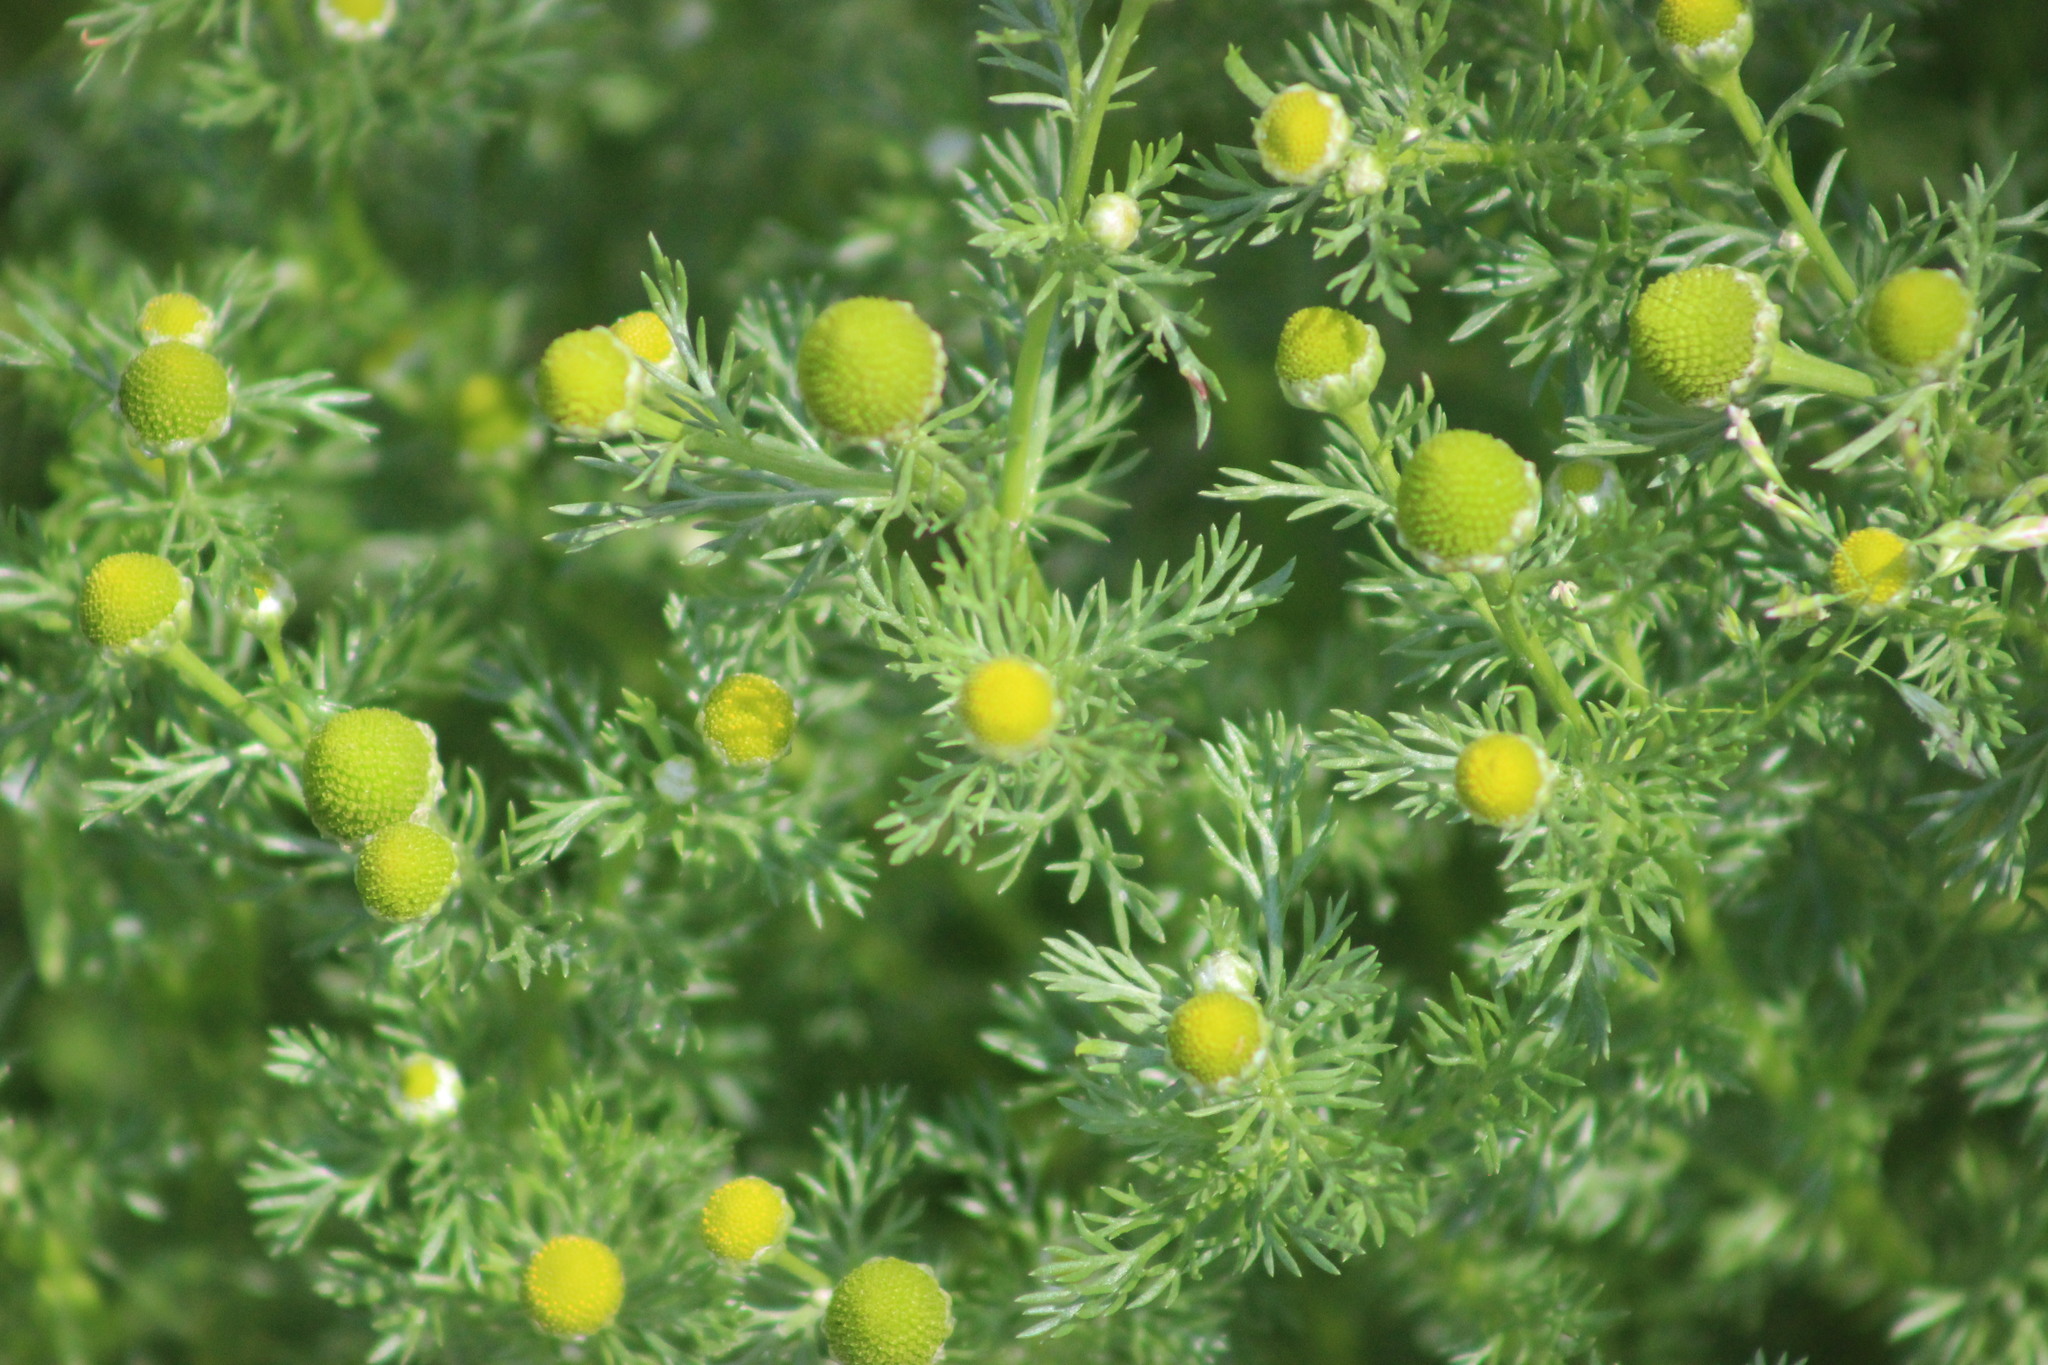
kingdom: Plantae
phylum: Tracheophyta
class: Magnoliopsida
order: Asterales
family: Asteraceae
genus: Matricaria
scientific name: Matricaria discoidea
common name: Disc mayweed
